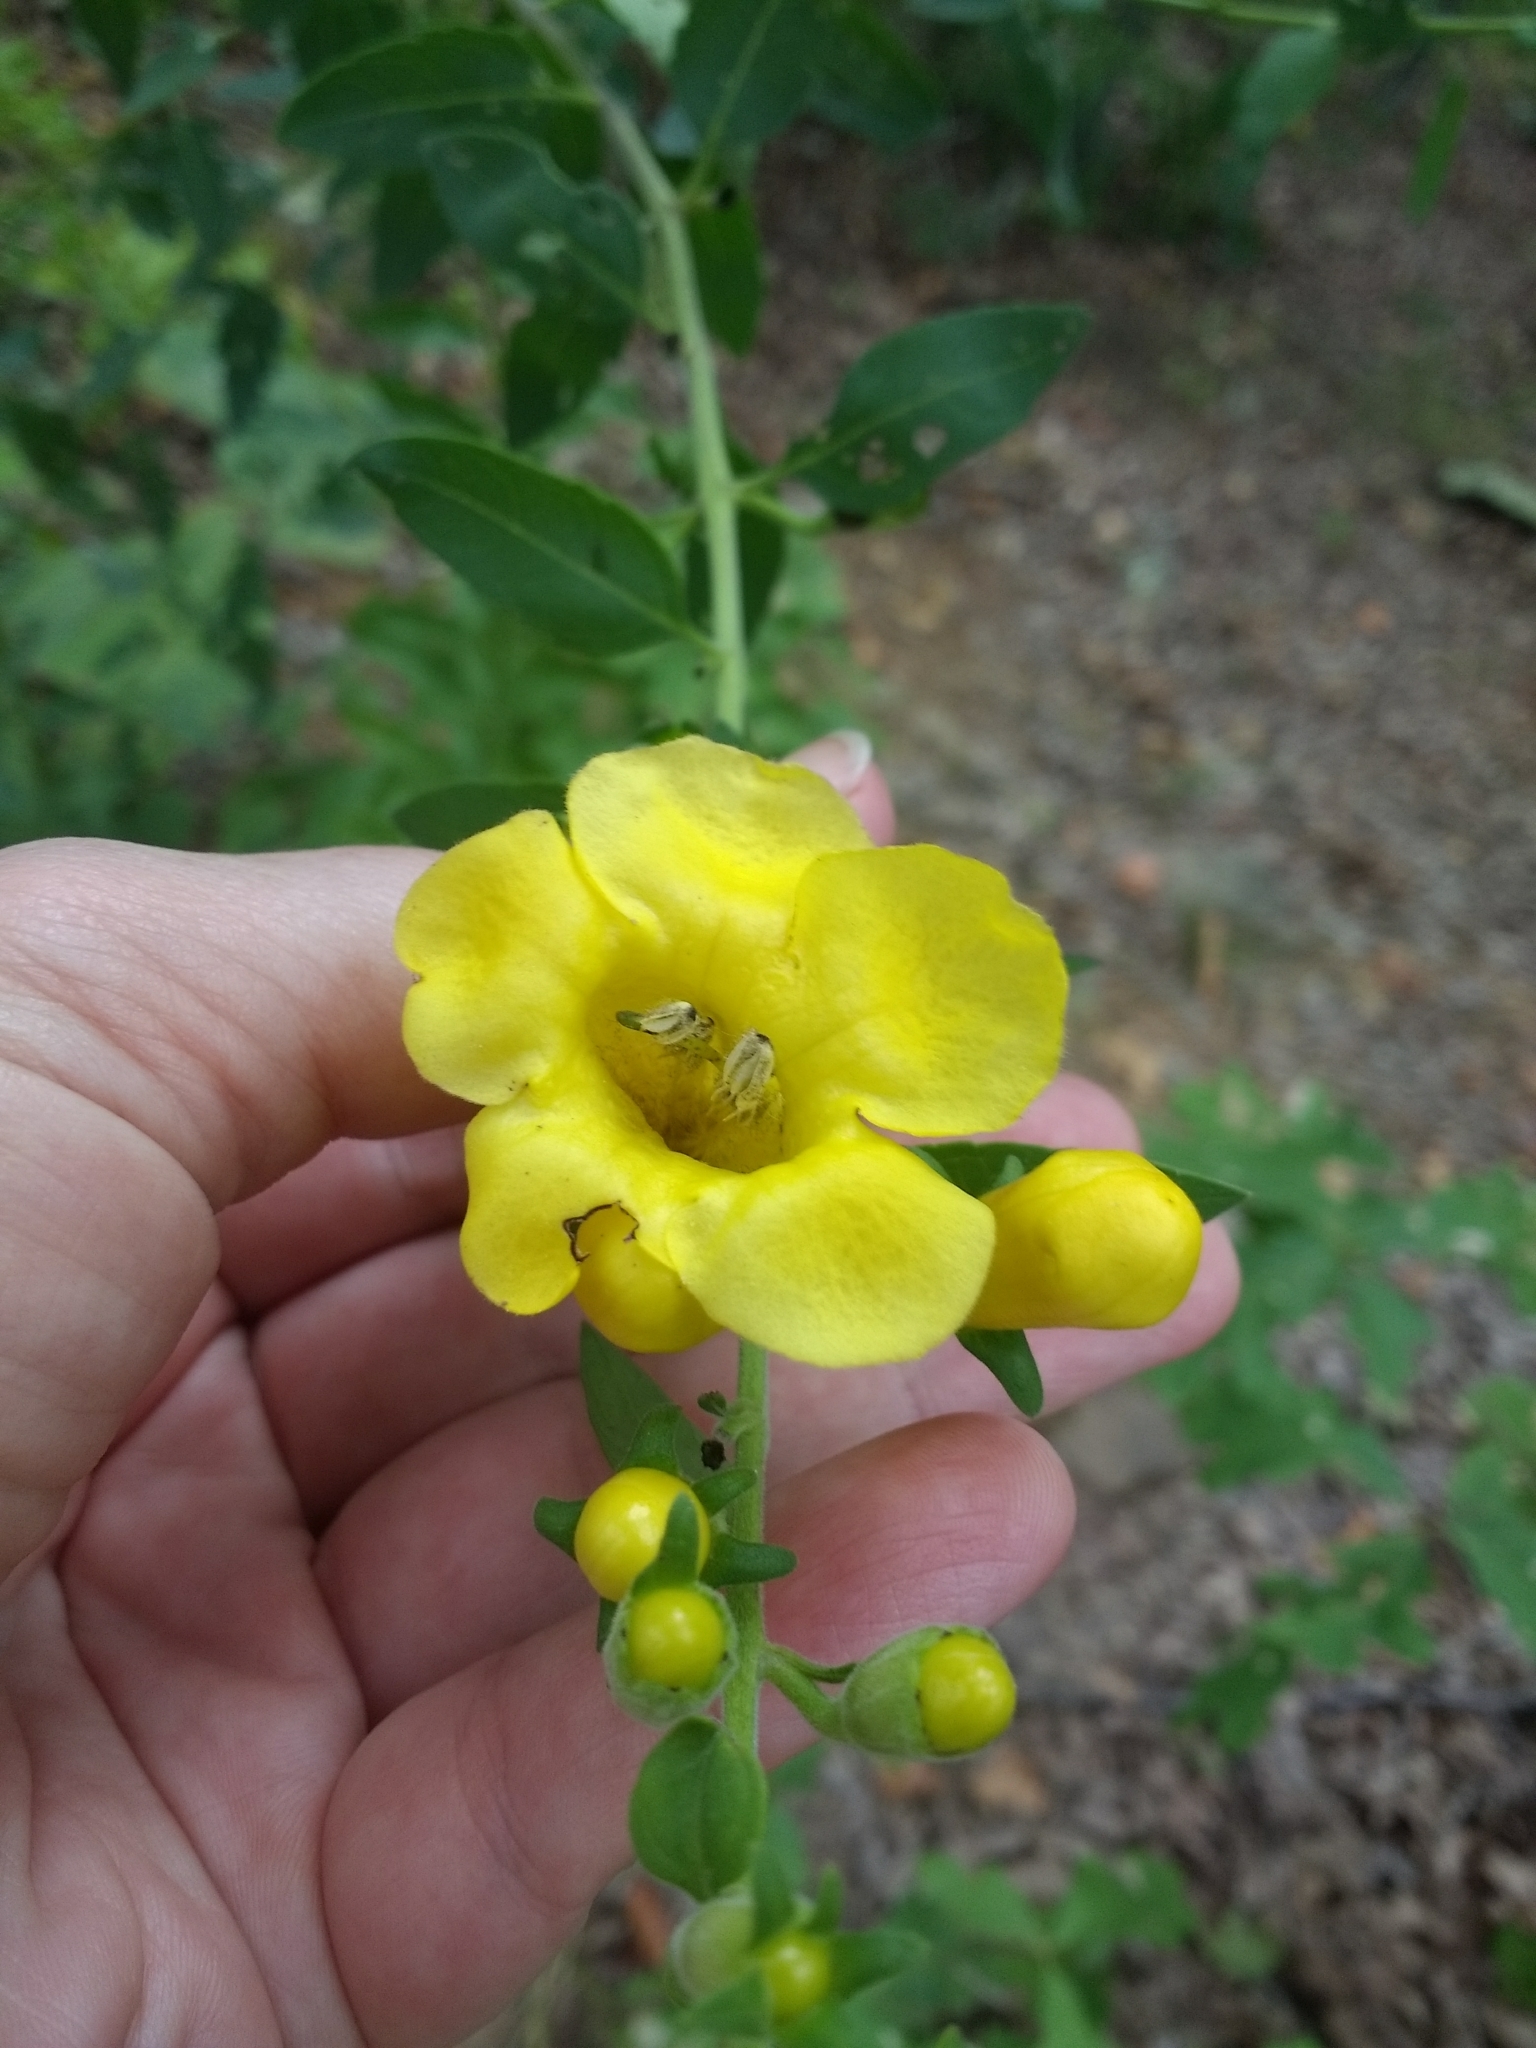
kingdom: Plantae
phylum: Tracheophyta
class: Magnoliopsida
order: Lamiales
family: Orobanchaceae
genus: Aureolaria
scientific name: Aureolaria grandiflora
